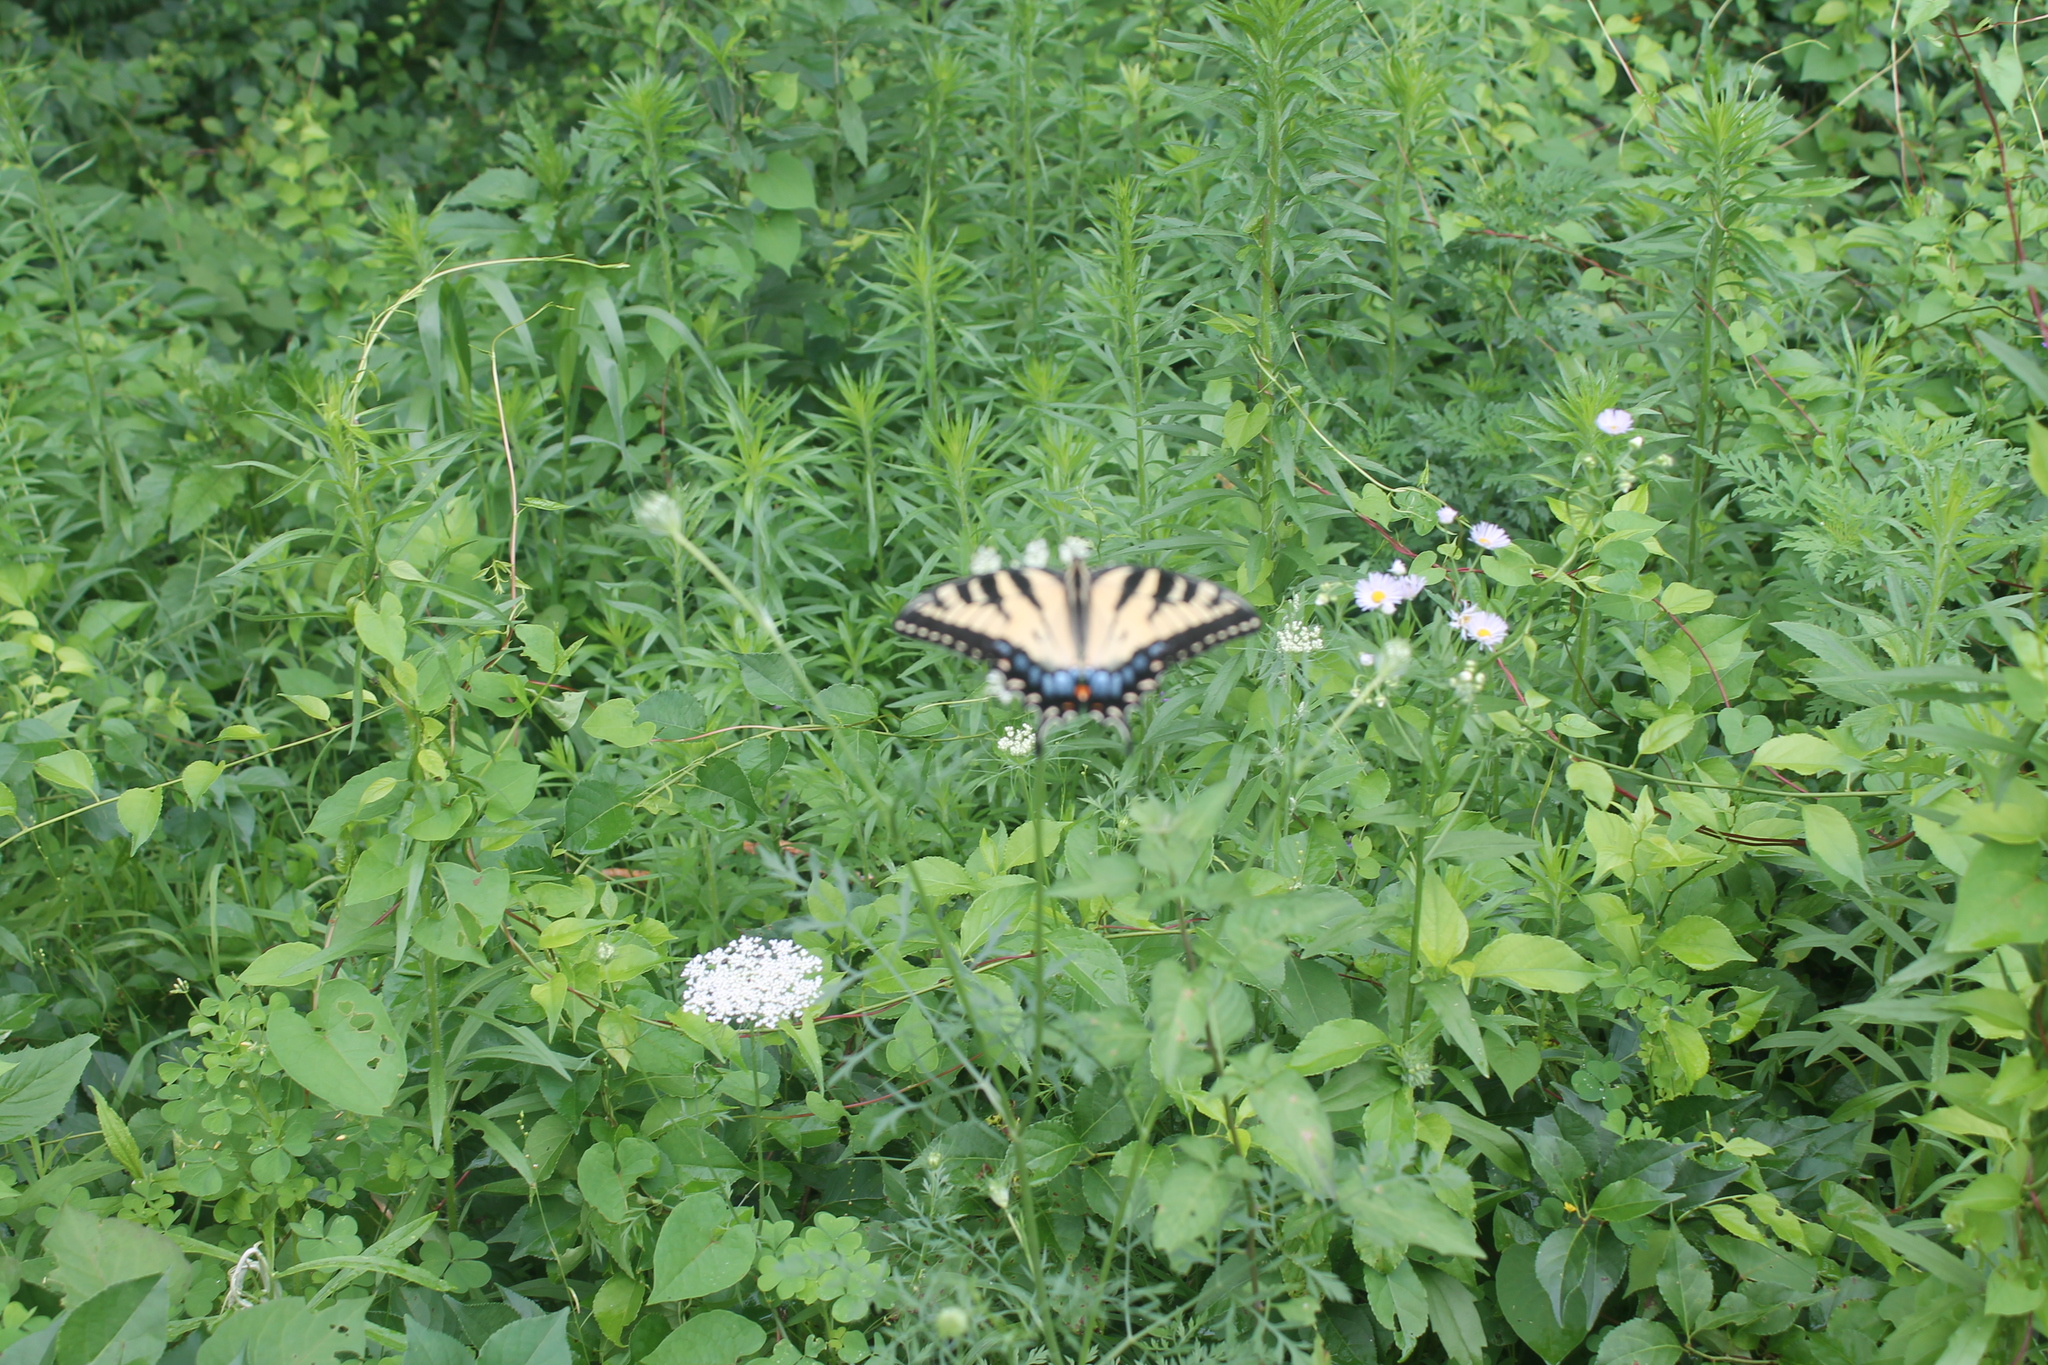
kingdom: Animalia
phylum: Arthropoda
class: Insecta
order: Lepidoptera
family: Papilionidae
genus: Papilio
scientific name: Papilio glaucus
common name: Tiger swallowtail
